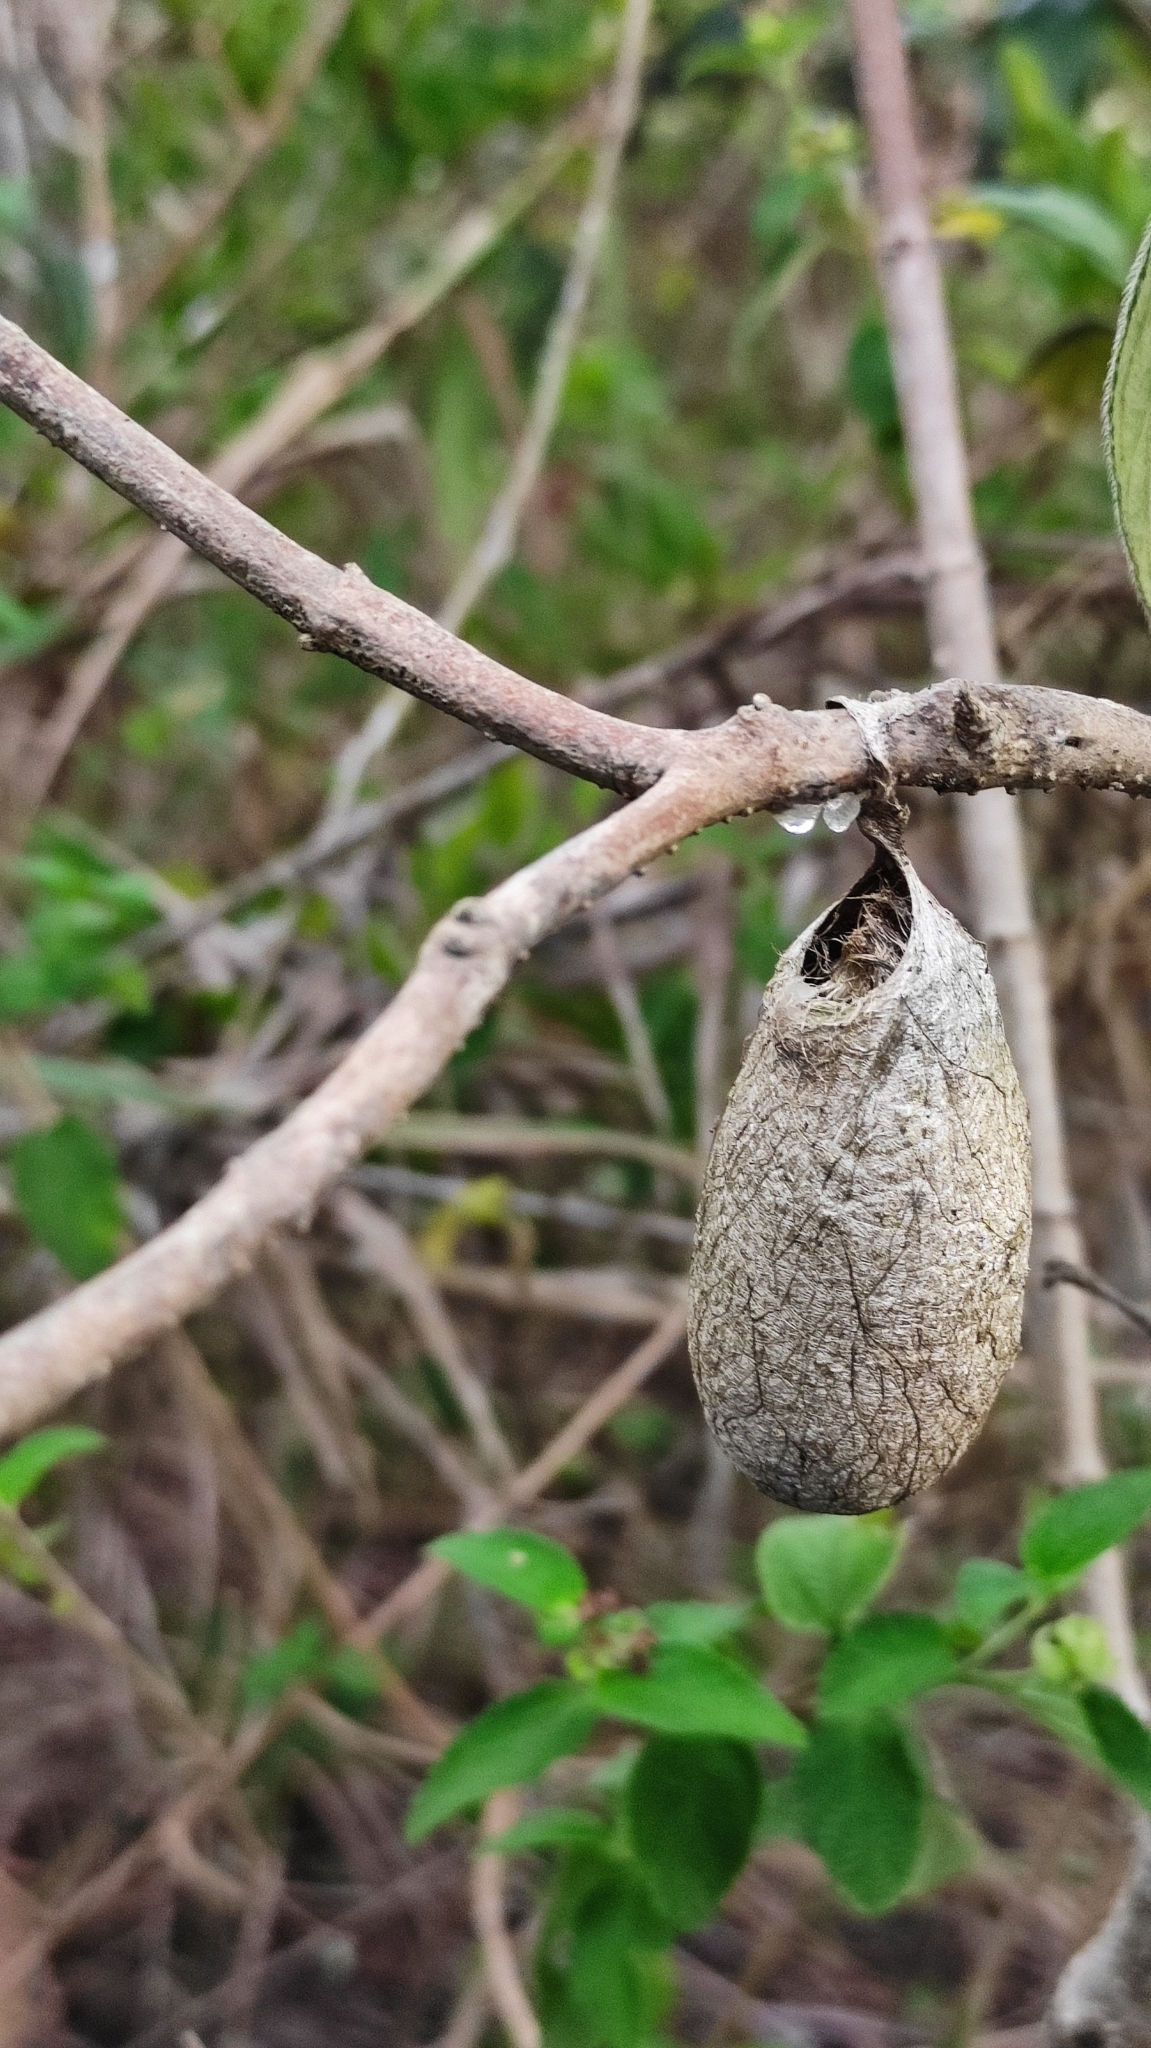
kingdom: Animalia
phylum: Arthropoda
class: Insecta
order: Lepidoptera
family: Saturniidae
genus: Rothschildia
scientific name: Rothschildia prionia
